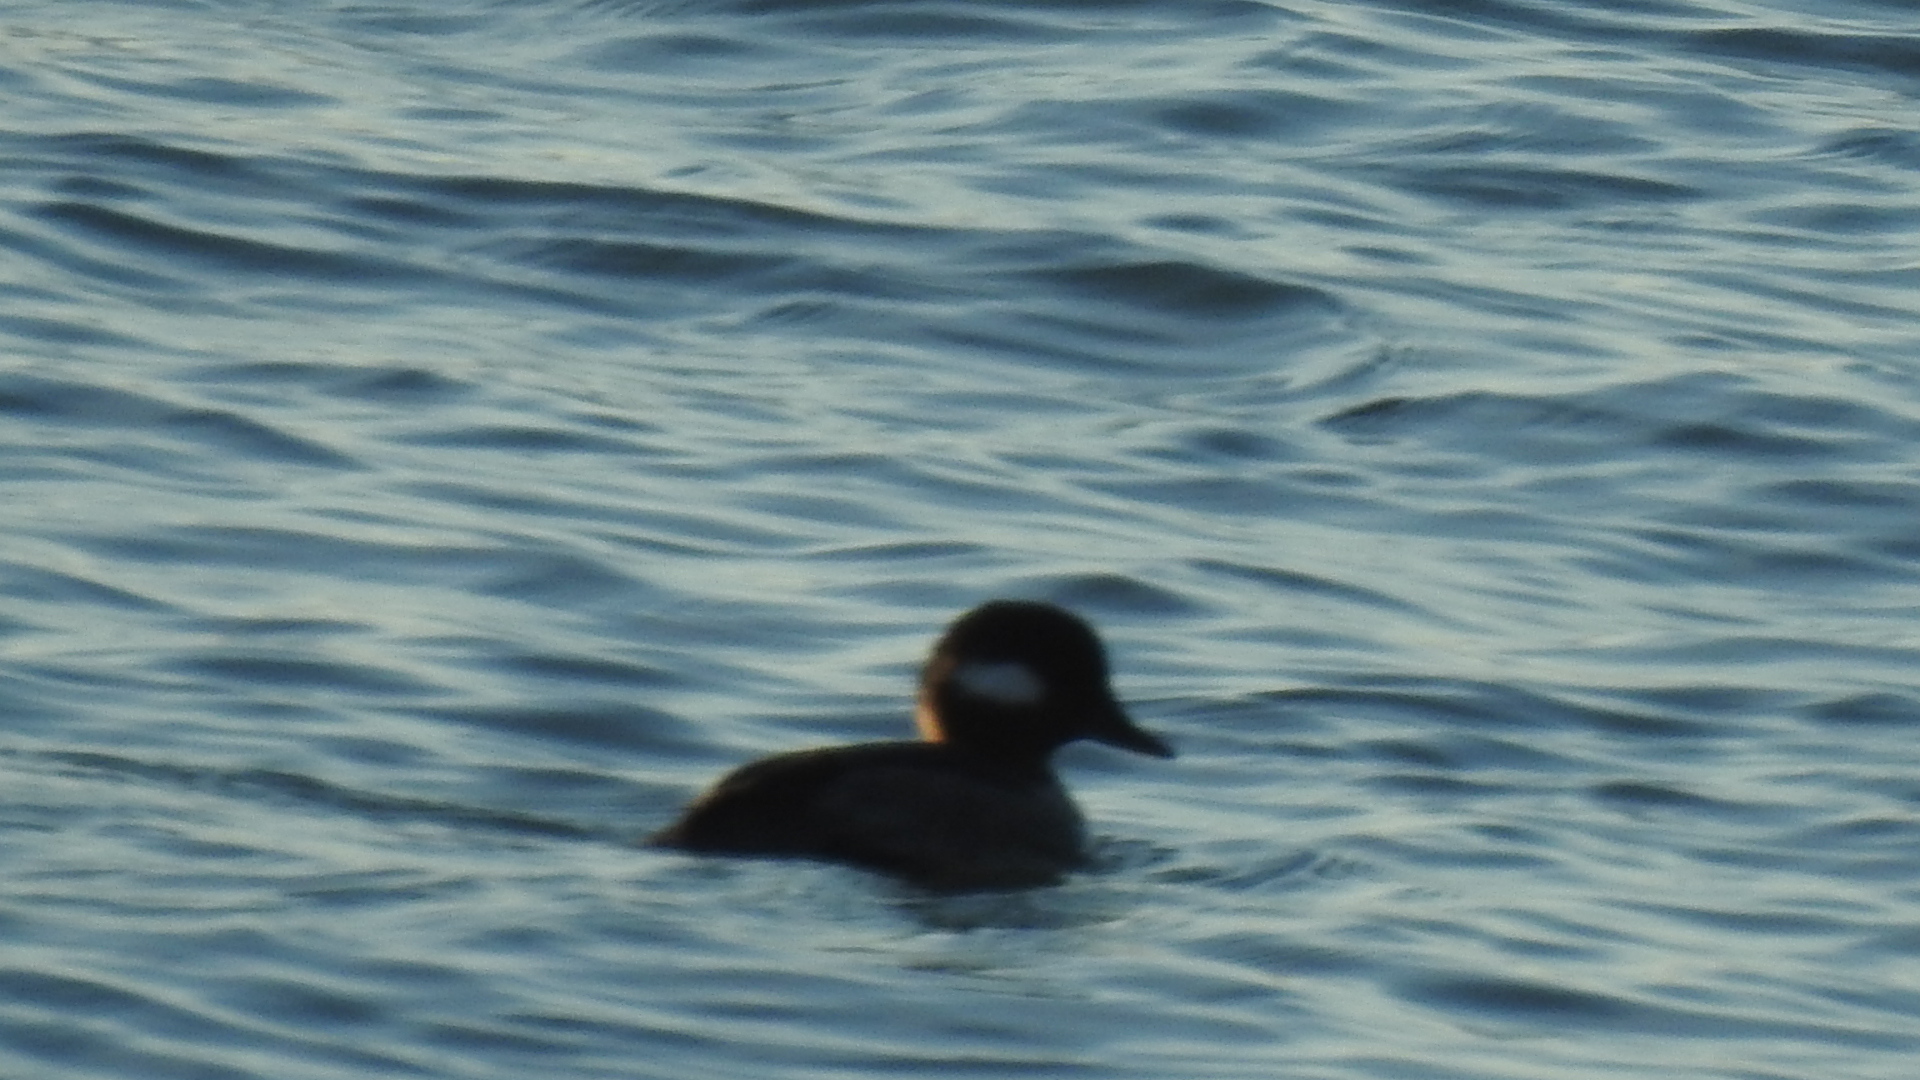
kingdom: Animalia
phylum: Chordata
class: Aves
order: Anseriformes
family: Anatidae
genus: Bucephala
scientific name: Bucephala albeola
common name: Bufflehead
